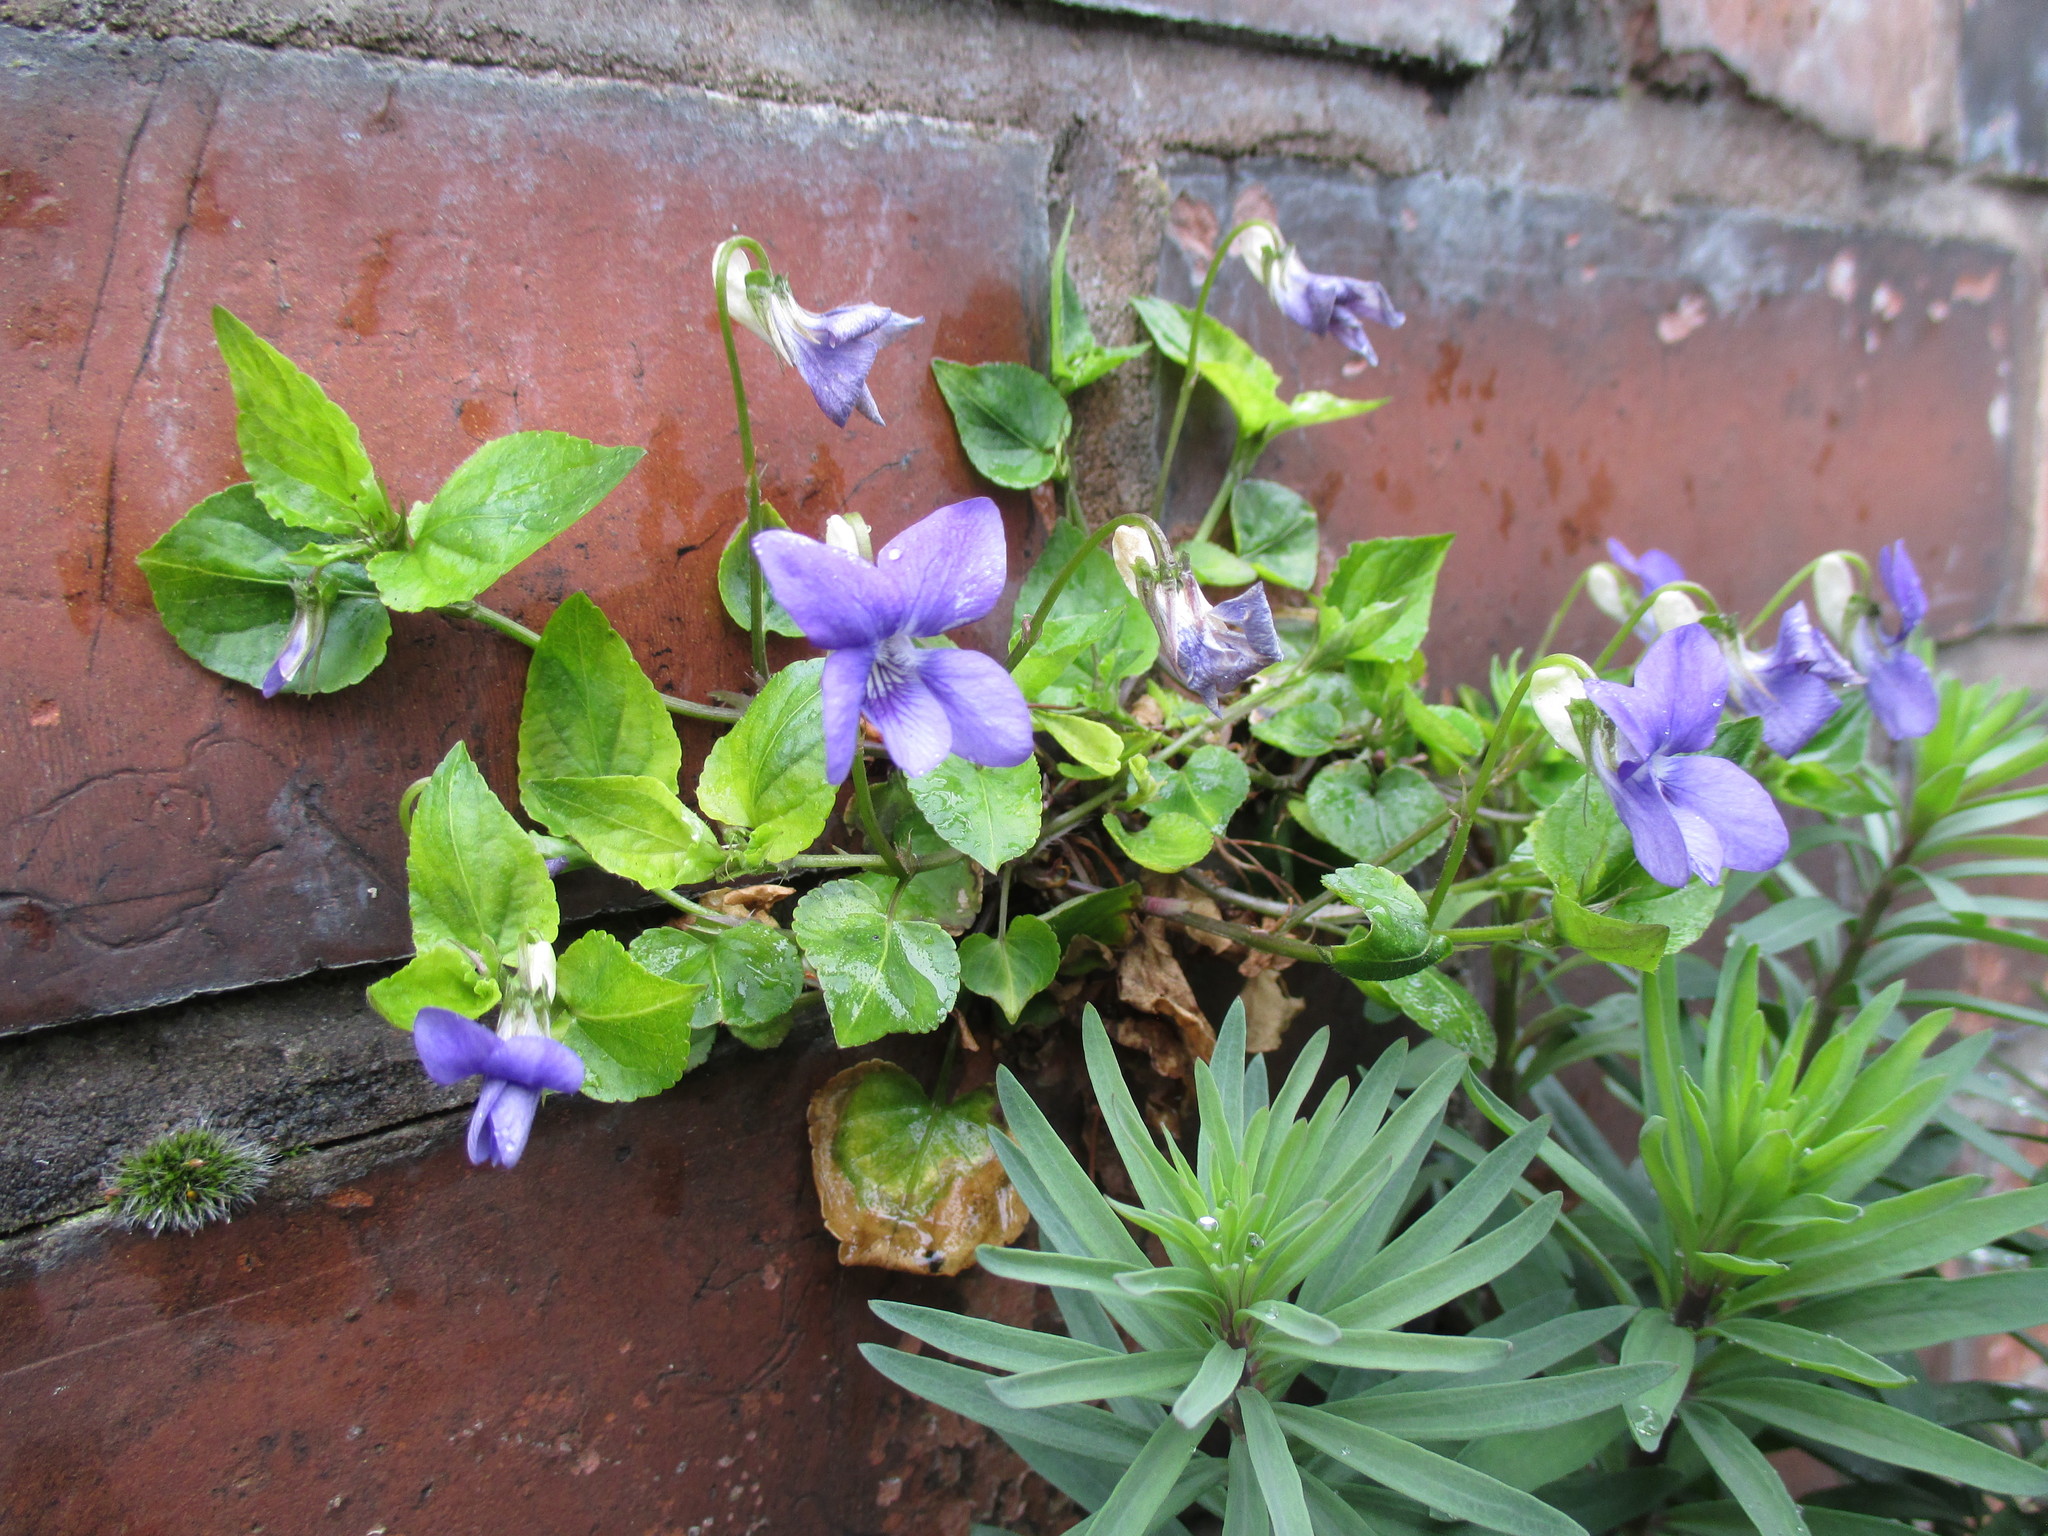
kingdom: Plantae
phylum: Tracheophyta
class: Magnoliopsida
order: Malpighiales
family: Violaceae
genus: Viola
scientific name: Viola riviniana
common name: Common dog-violet
